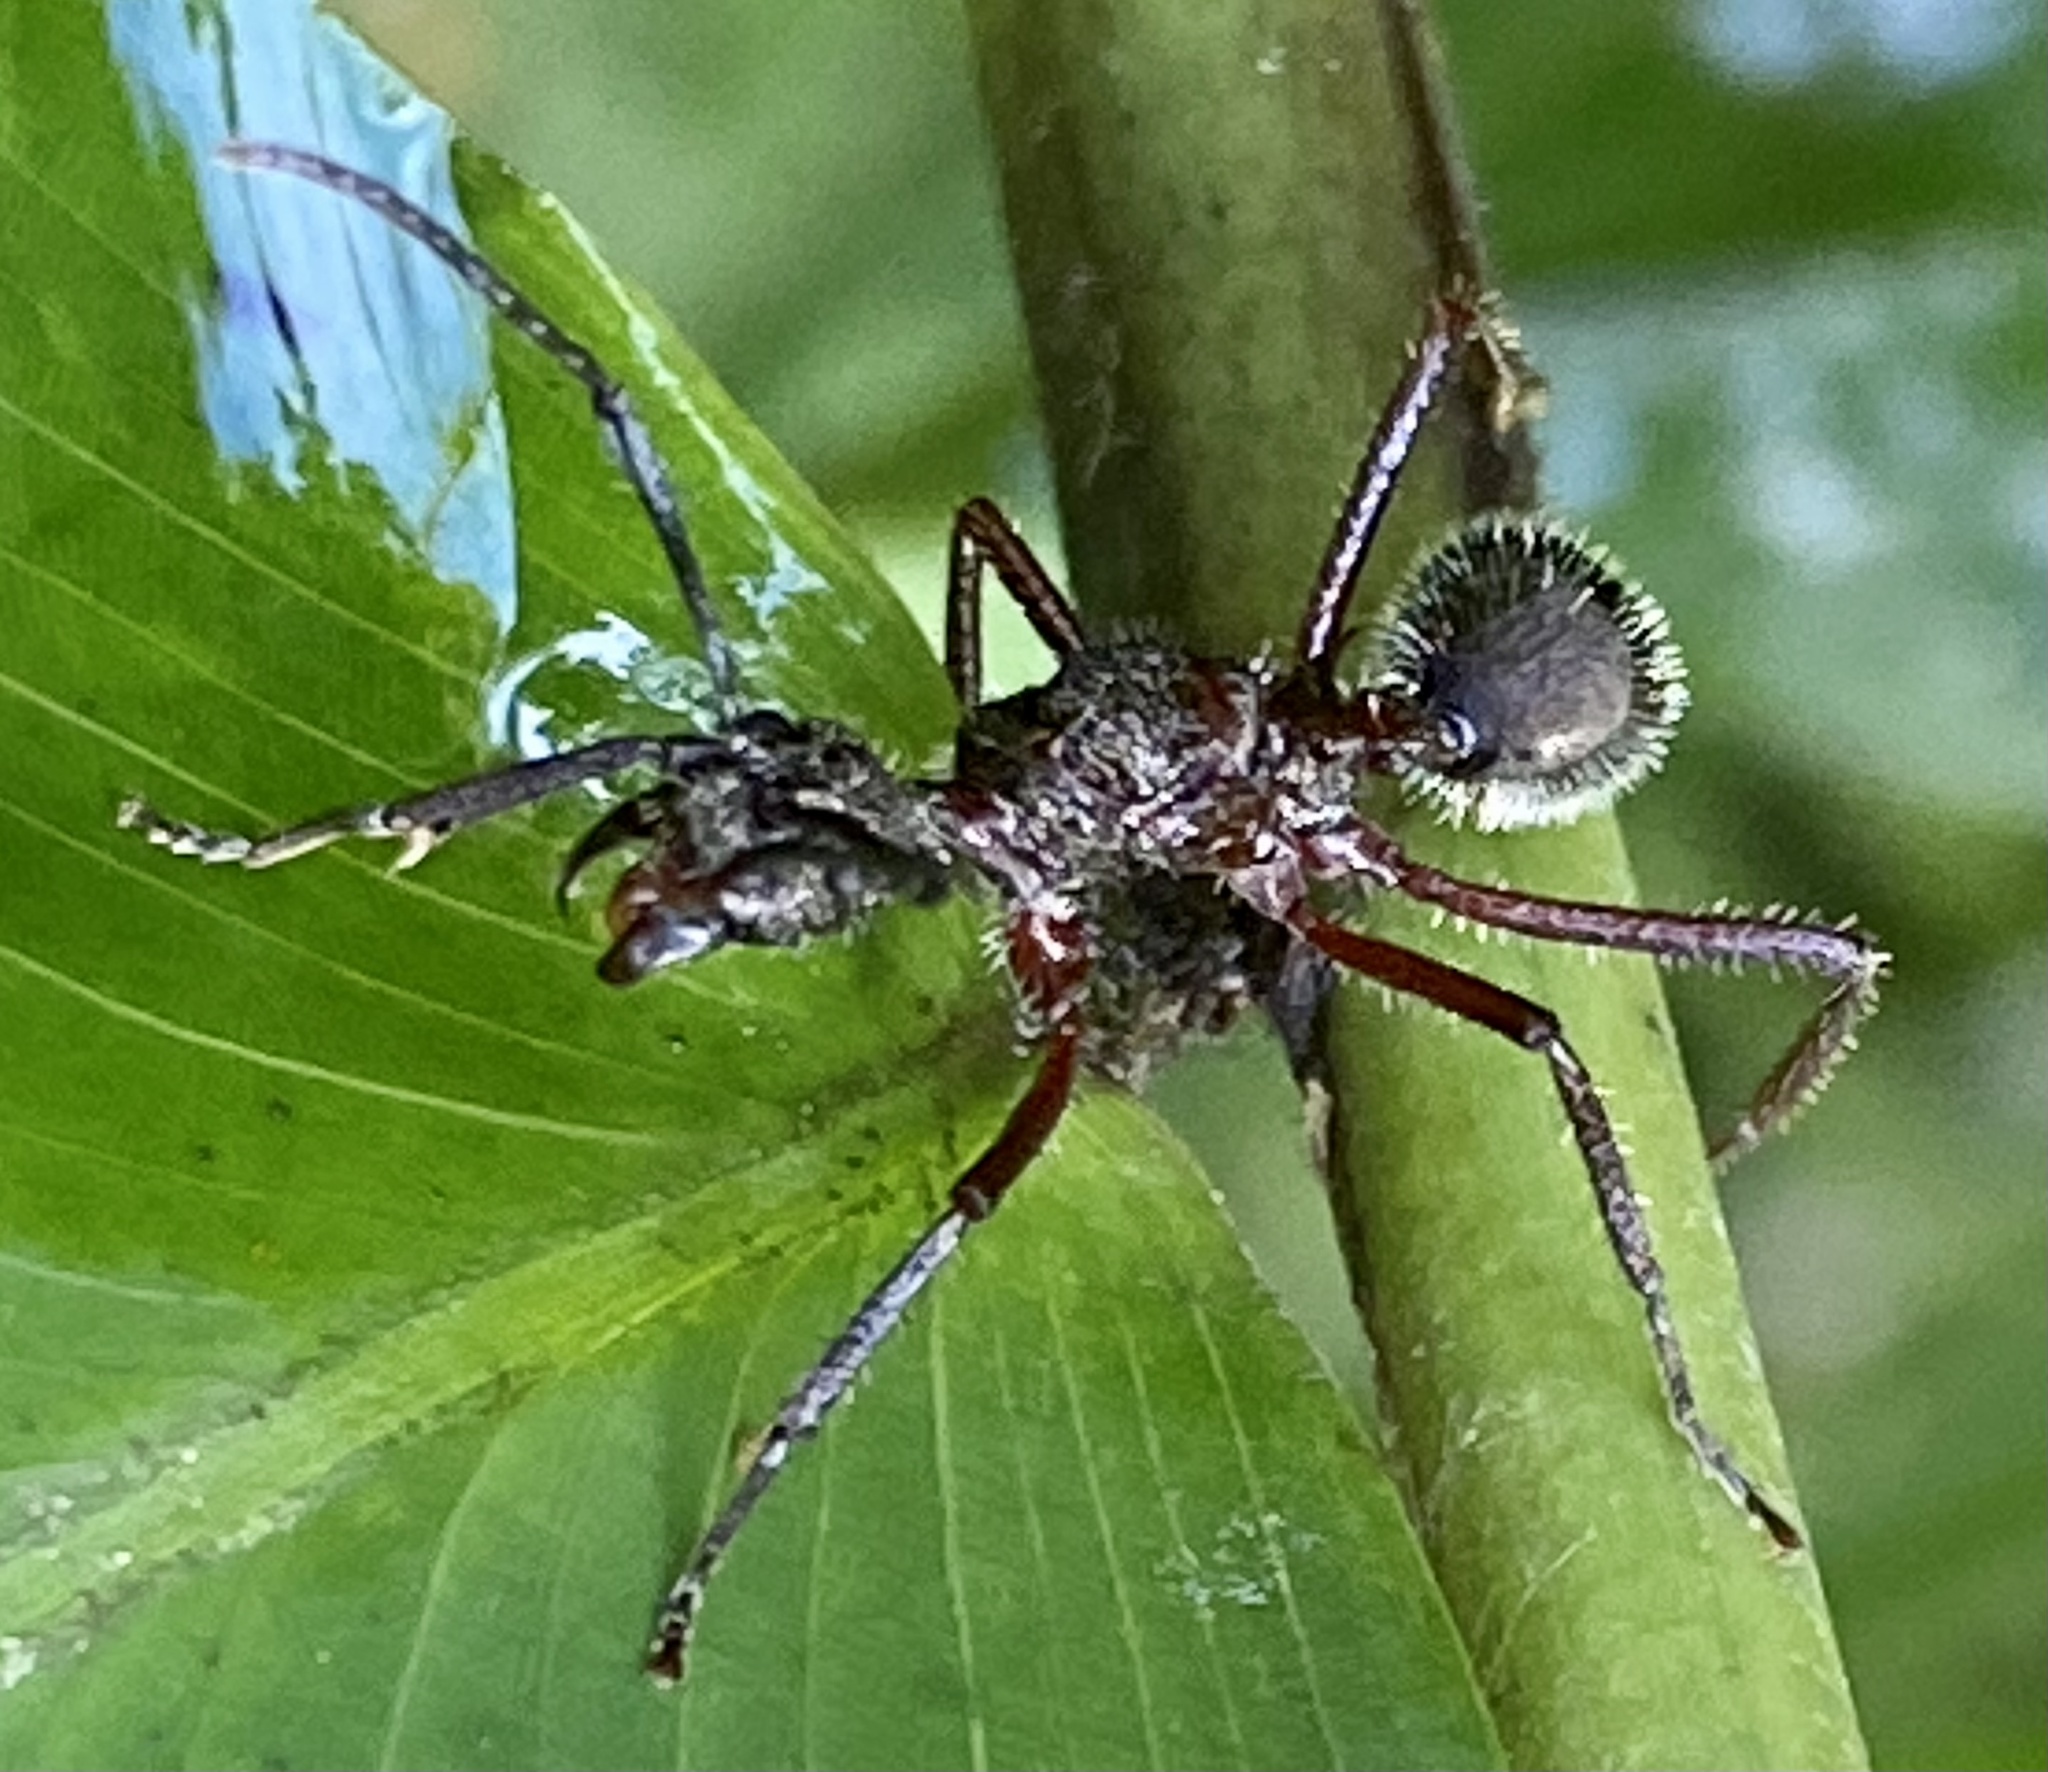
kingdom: Animalia
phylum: Arthropoda
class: Insecta
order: Hymenoptera
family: Formicidae
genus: Dolichoderus
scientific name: Dolichoderus attelaboides
